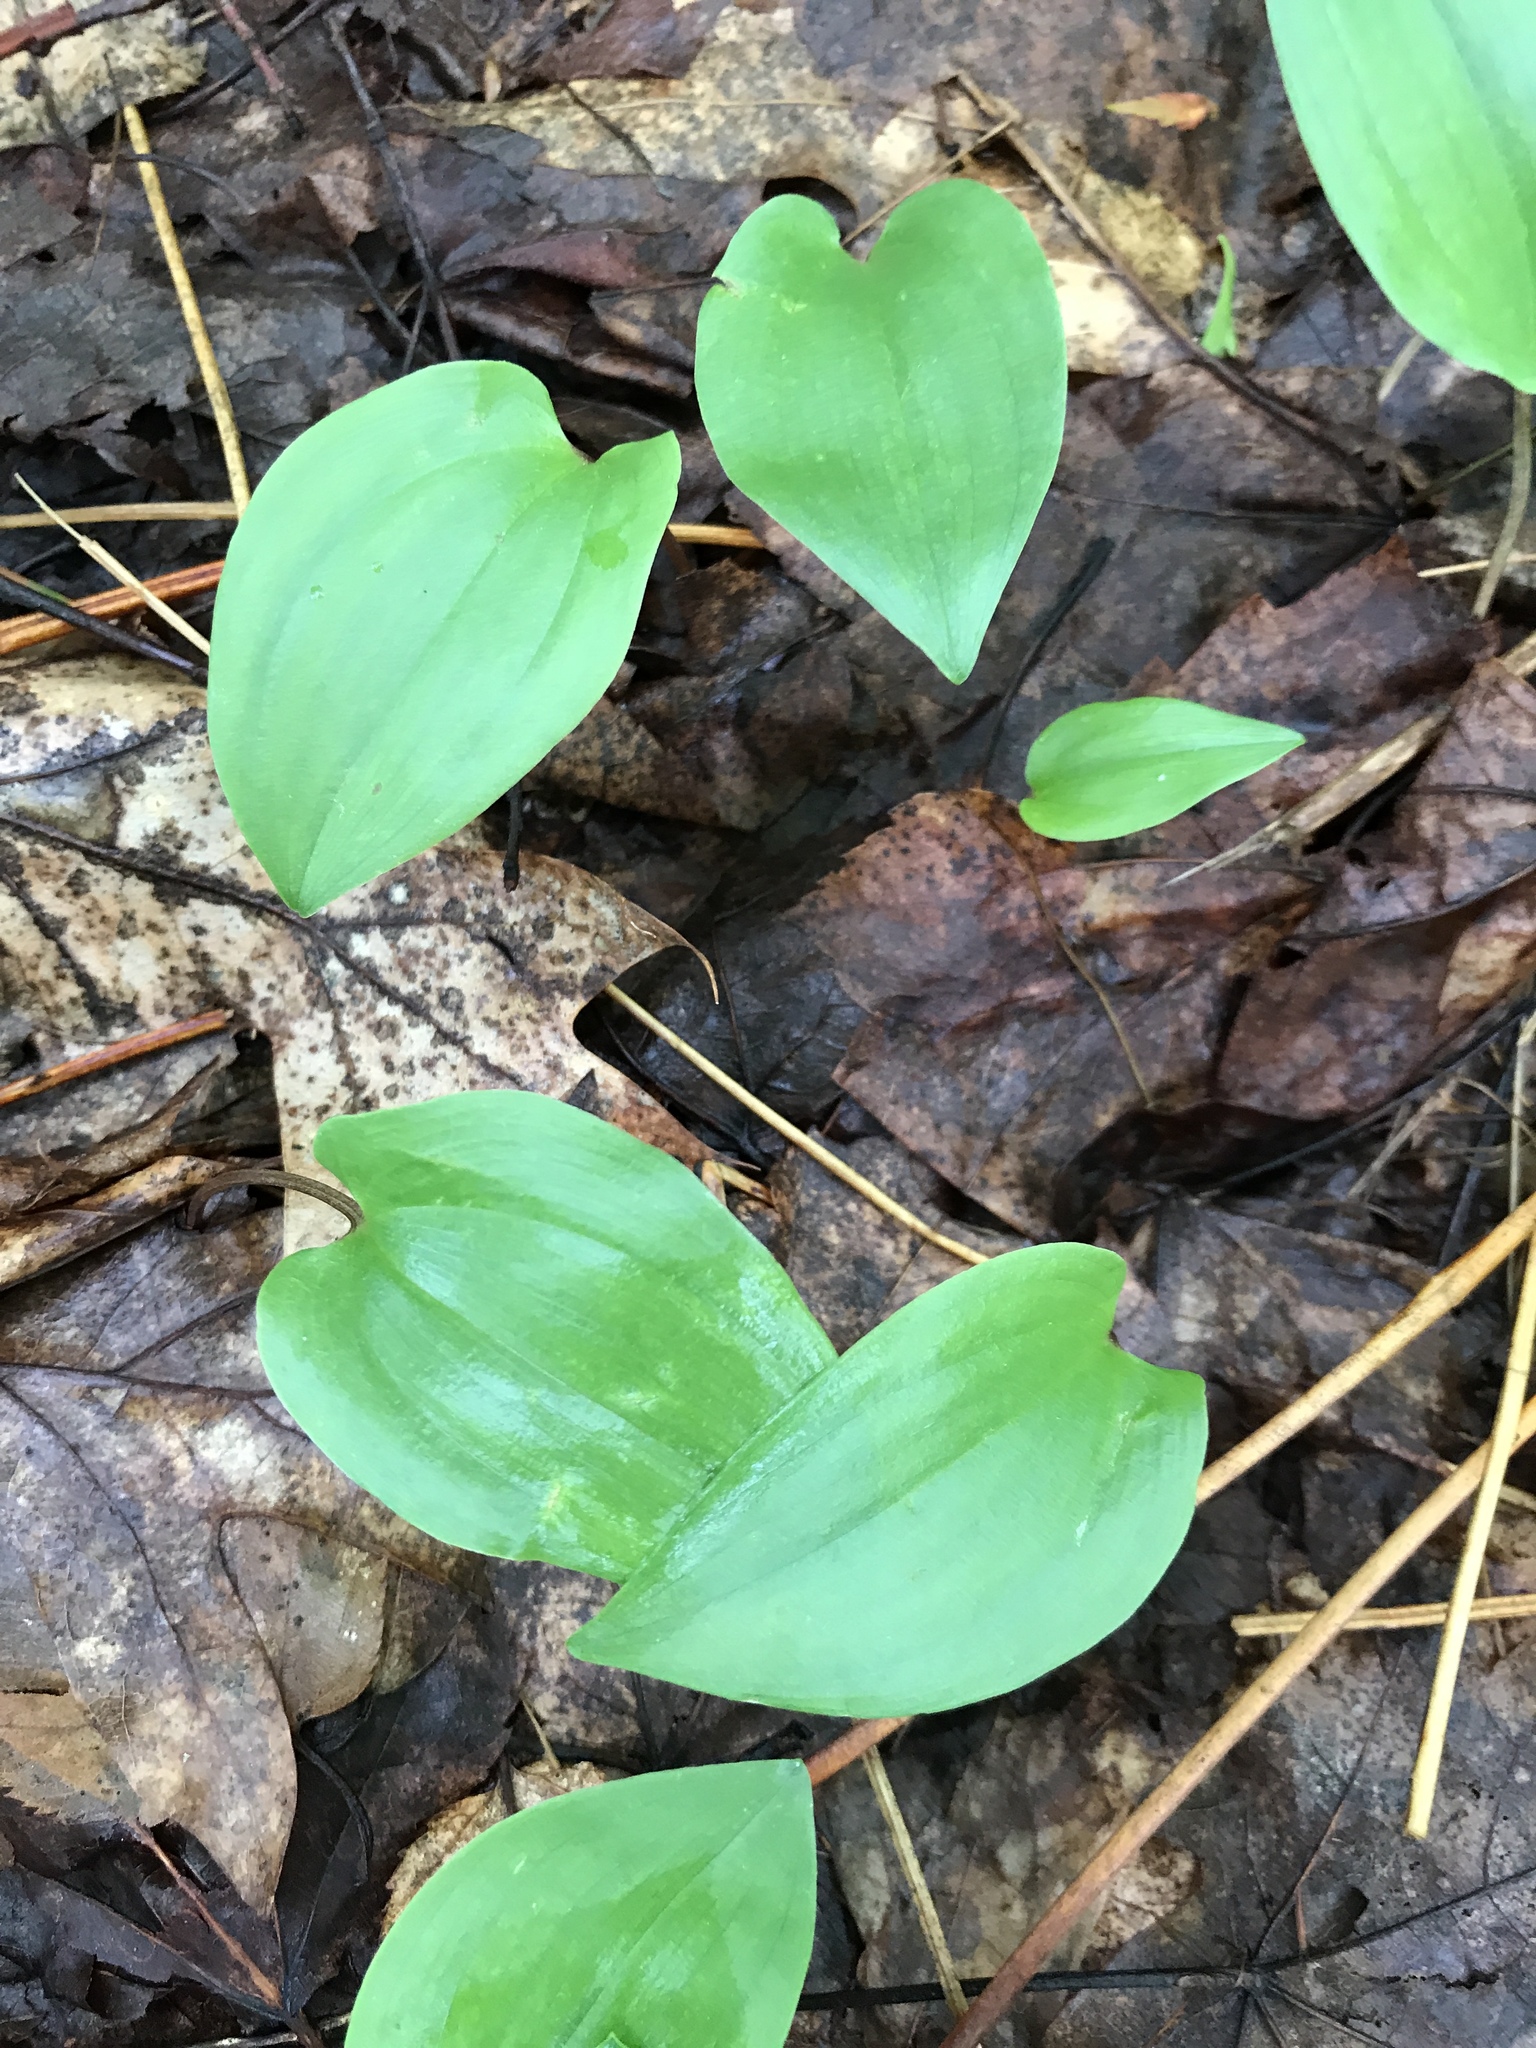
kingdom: Plantae
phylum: Tracheophyta
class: Liliopsida
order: Asparagales
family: Asparagaceae
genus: Maianthemum
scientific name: Maianthemum canadense
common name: False lily-of-the-valley
